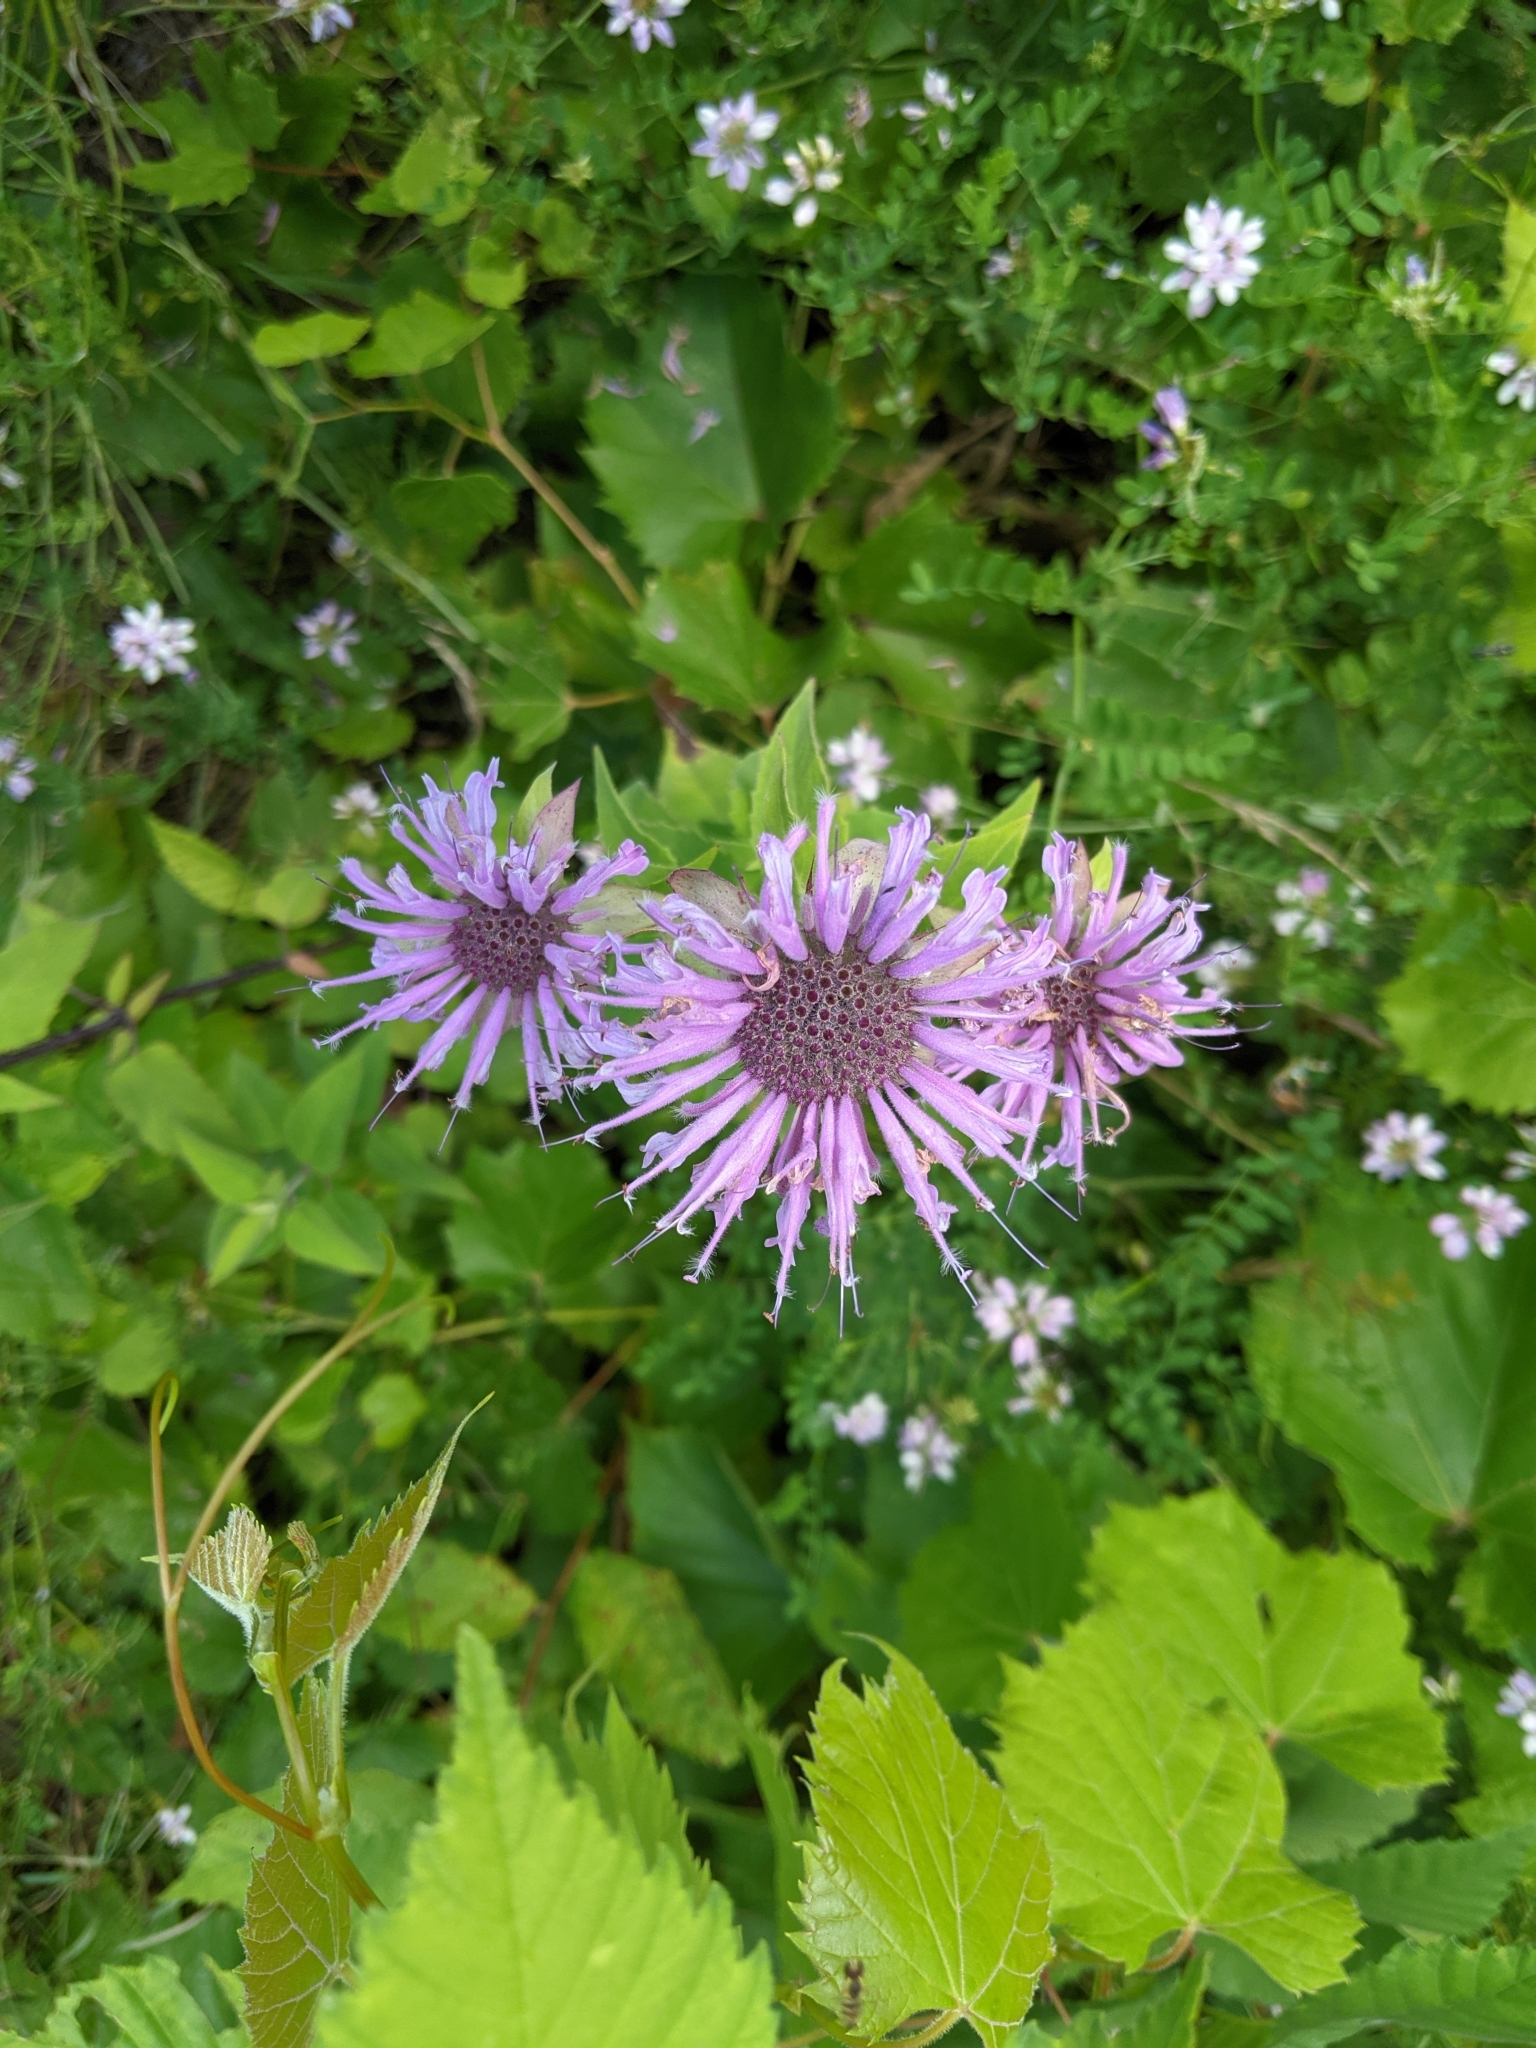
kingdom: Plantae
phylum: Tracheophyta
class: Magnoliopsida
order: Lamiales
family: Lamiaceae
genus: Monarda
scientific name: Monarda fistulosa
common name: Purple beebalm
